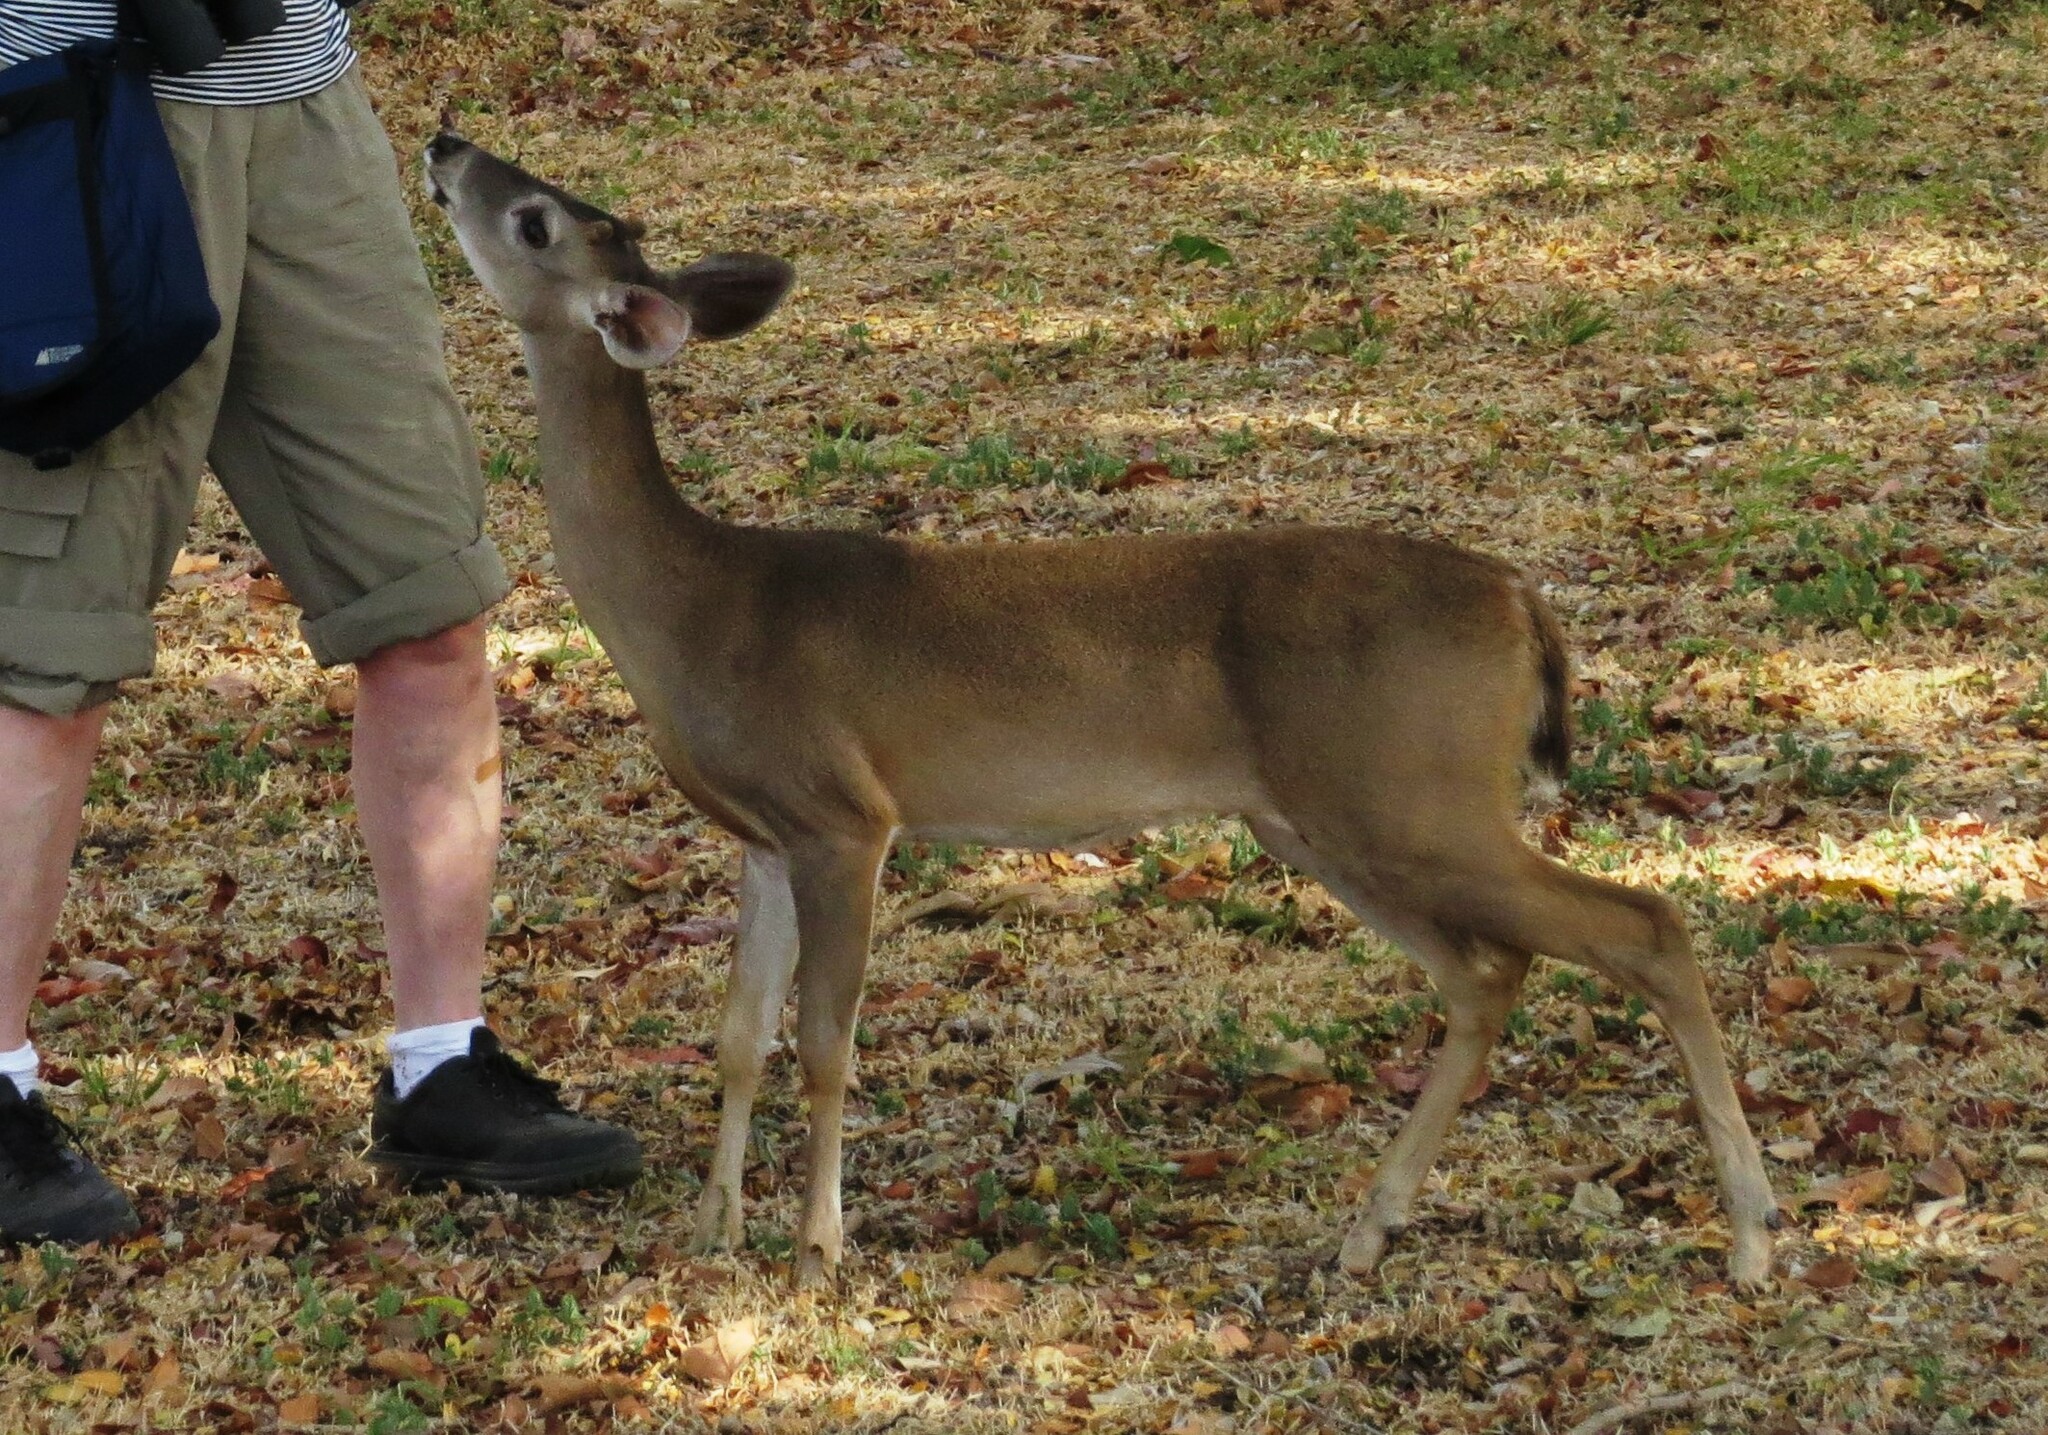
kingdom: Animalia
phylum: Chordata
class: Mammalia
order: Artiodactyla
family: Cervidae
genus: Odocoileus
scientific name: Odocoileus virginianus
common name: White-tailed deer
